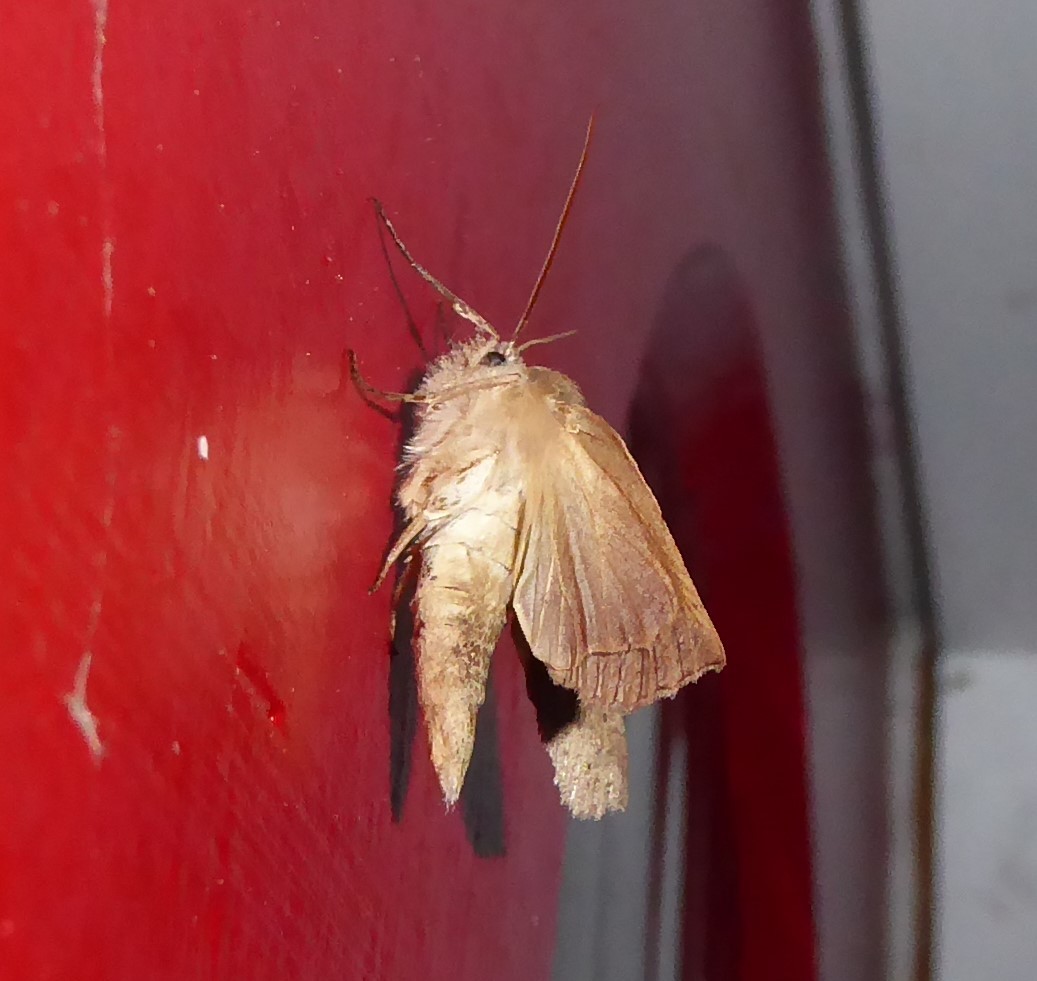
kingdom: Animalia
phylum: Arthropoda
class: Insecta
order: Lepidoptera
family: Geometridae
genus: Declana
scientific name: Declana leptomera
